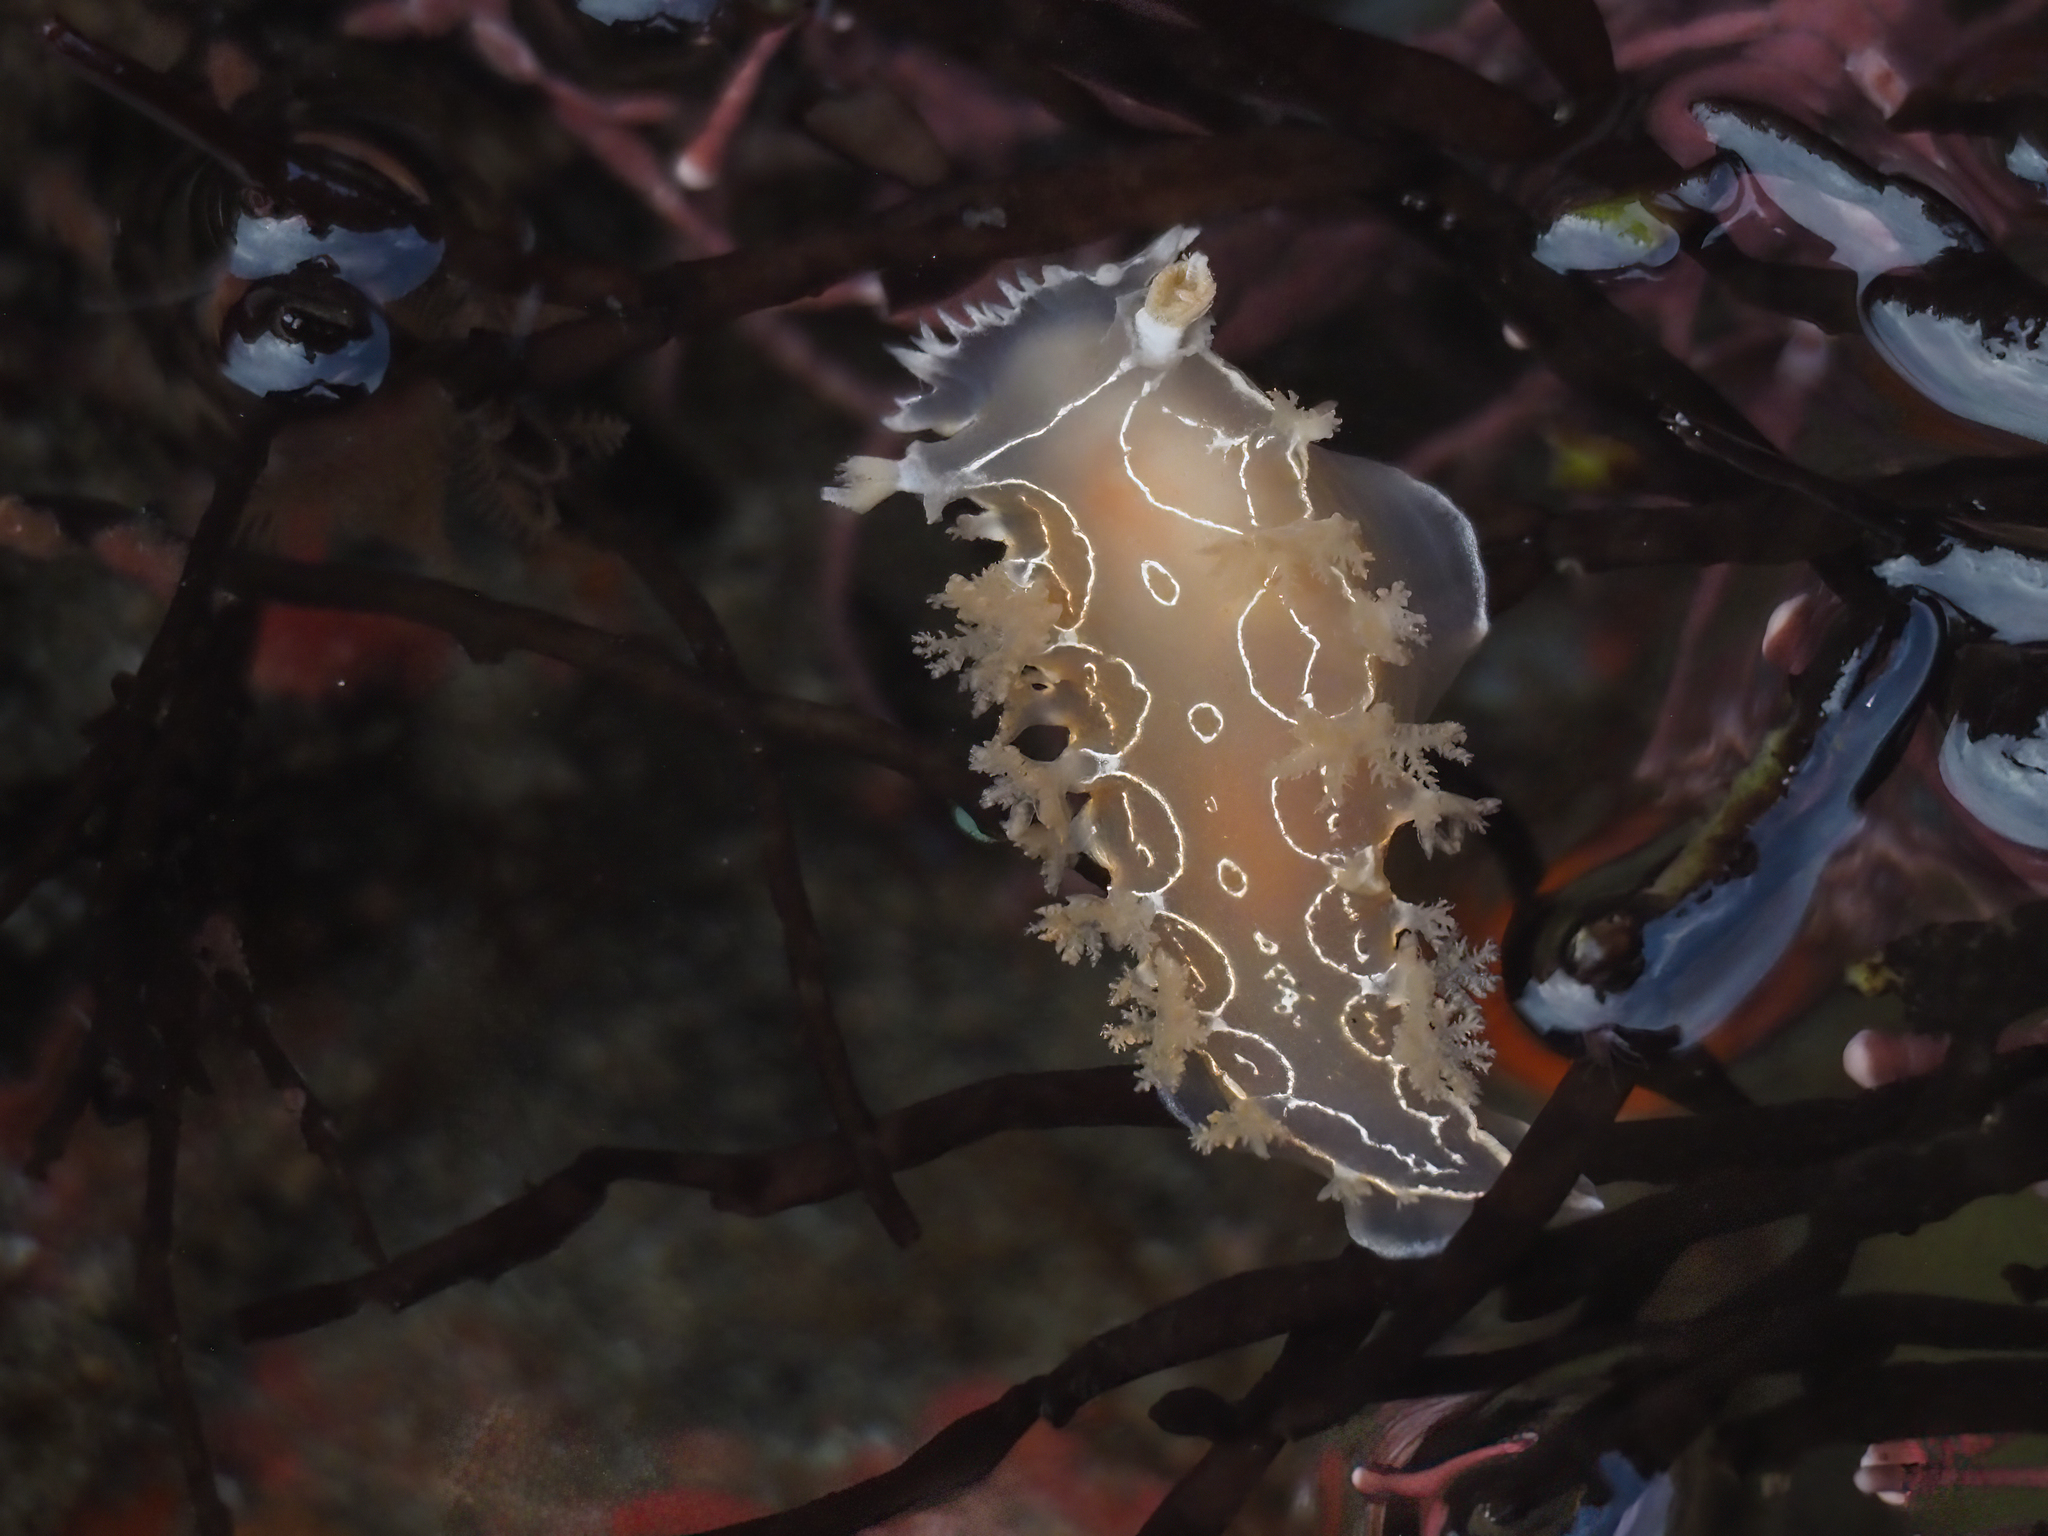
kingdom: Animalia
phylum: Mollusca
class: Gastropoda
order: Nudibranchia
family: Tritoniidae
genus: Tritonia
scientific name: Tritonia festiva
